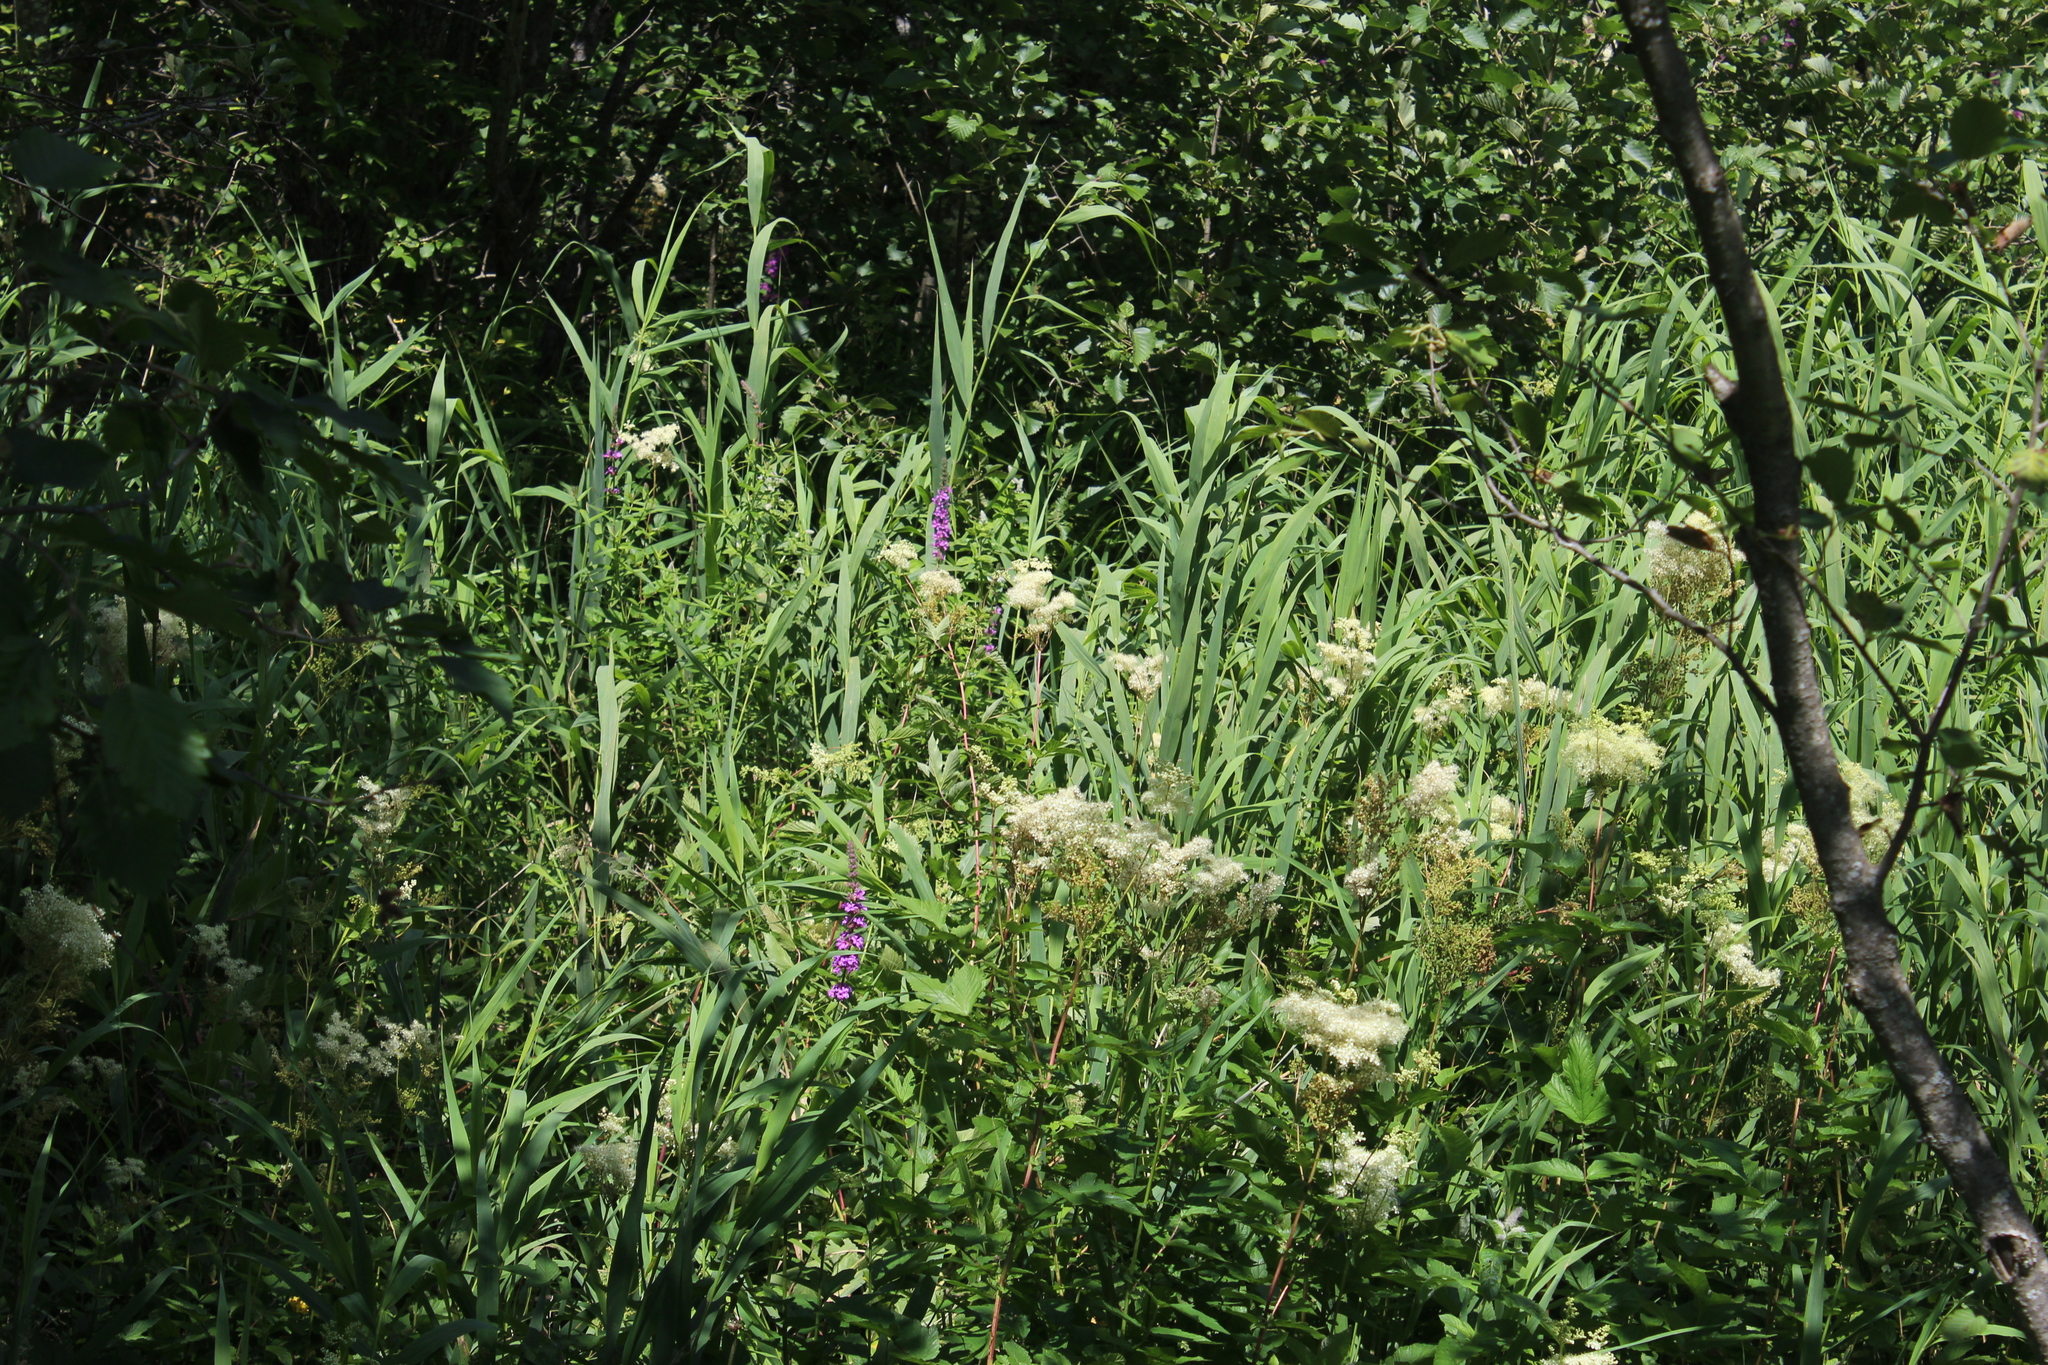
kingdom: Plantae
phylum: Tracheophyta
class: Liliopsida
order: Poales
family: Poaceae
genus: Phragmites
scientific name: Phragmites australis
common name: Common reed
